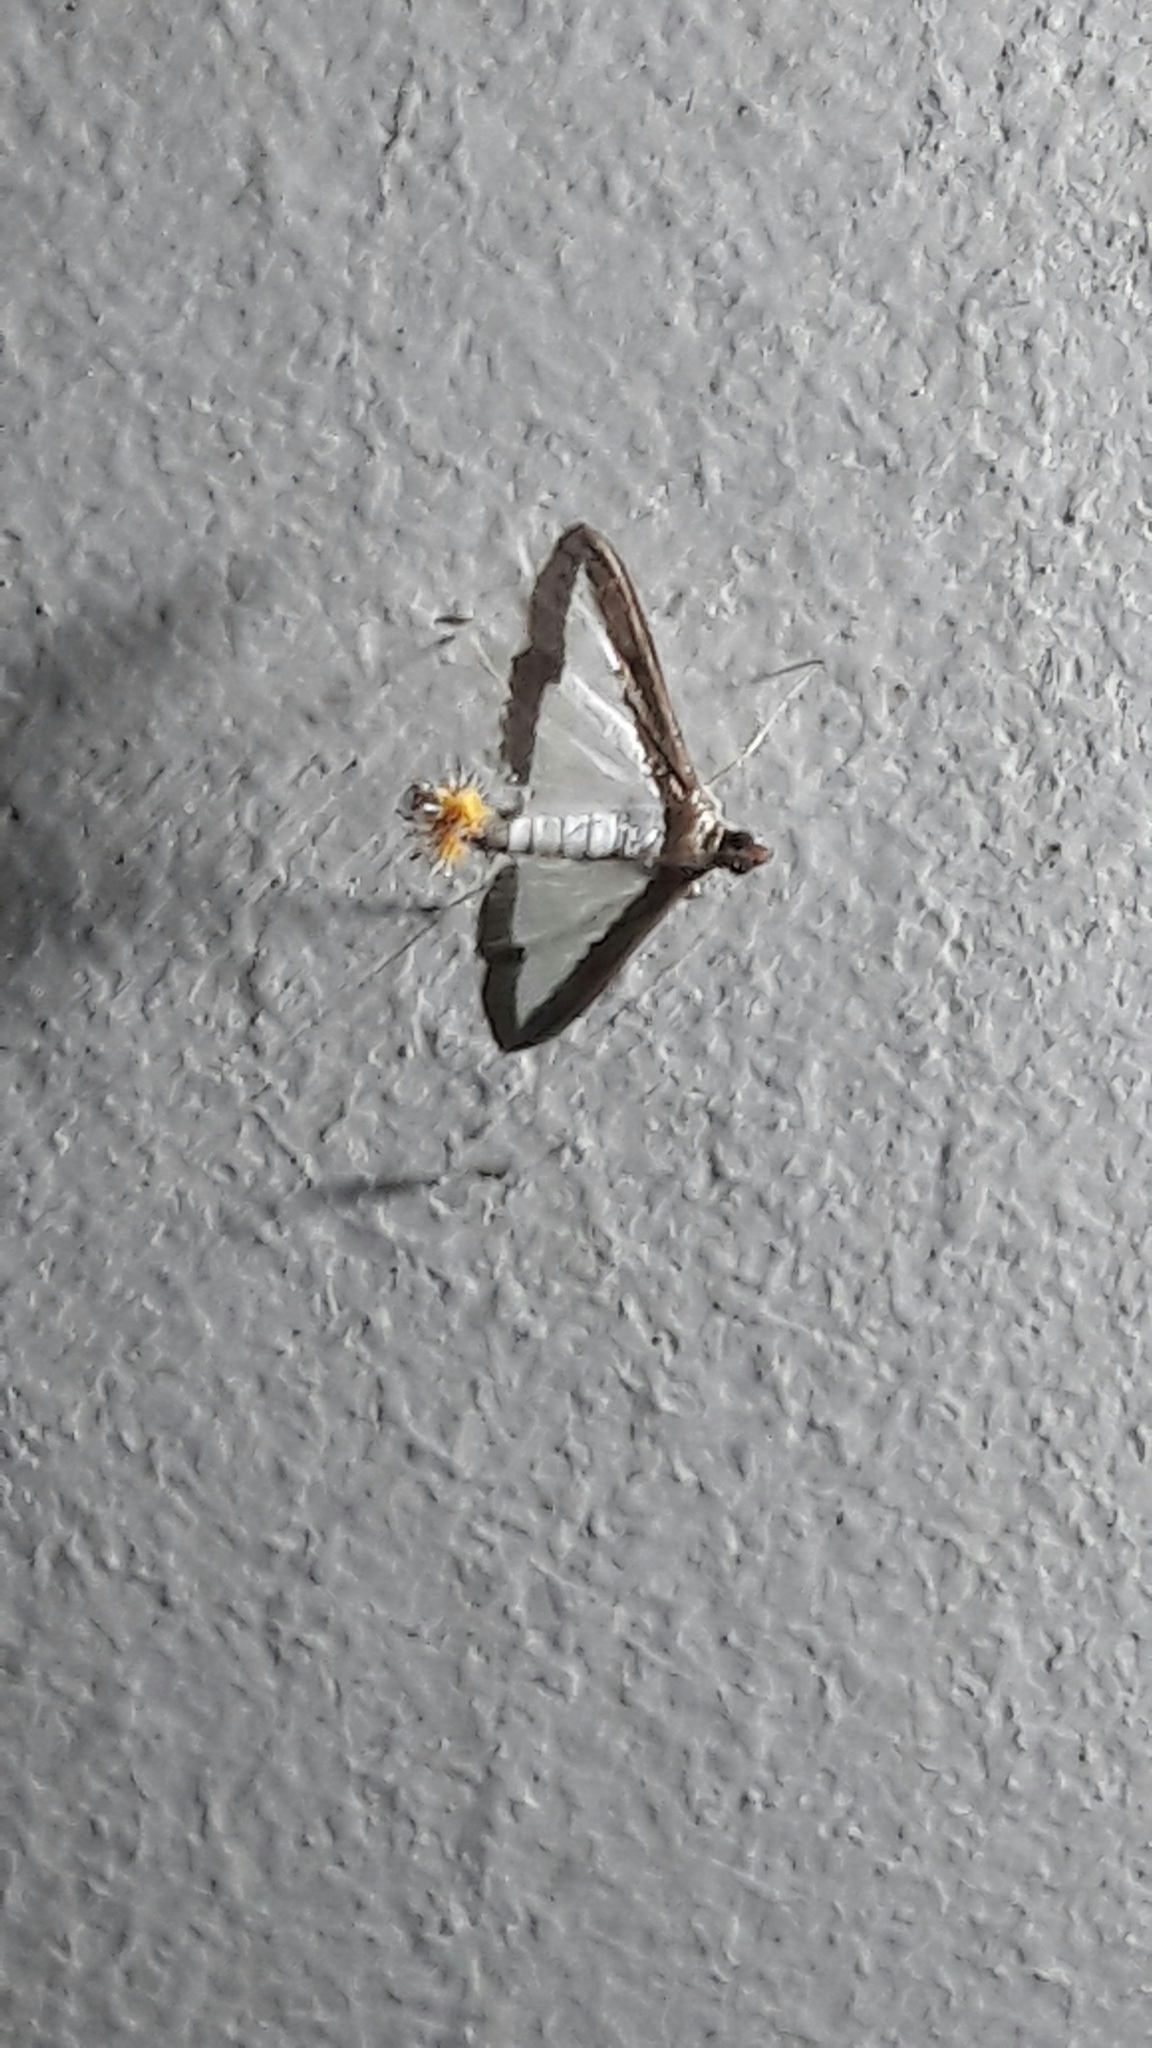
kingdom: Animalia
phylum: Arthropoda
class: Insecta
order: Lepidoptera
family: Crambidae
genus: Diaphania
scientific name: Diaphania hyalinata
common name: Melonworm
